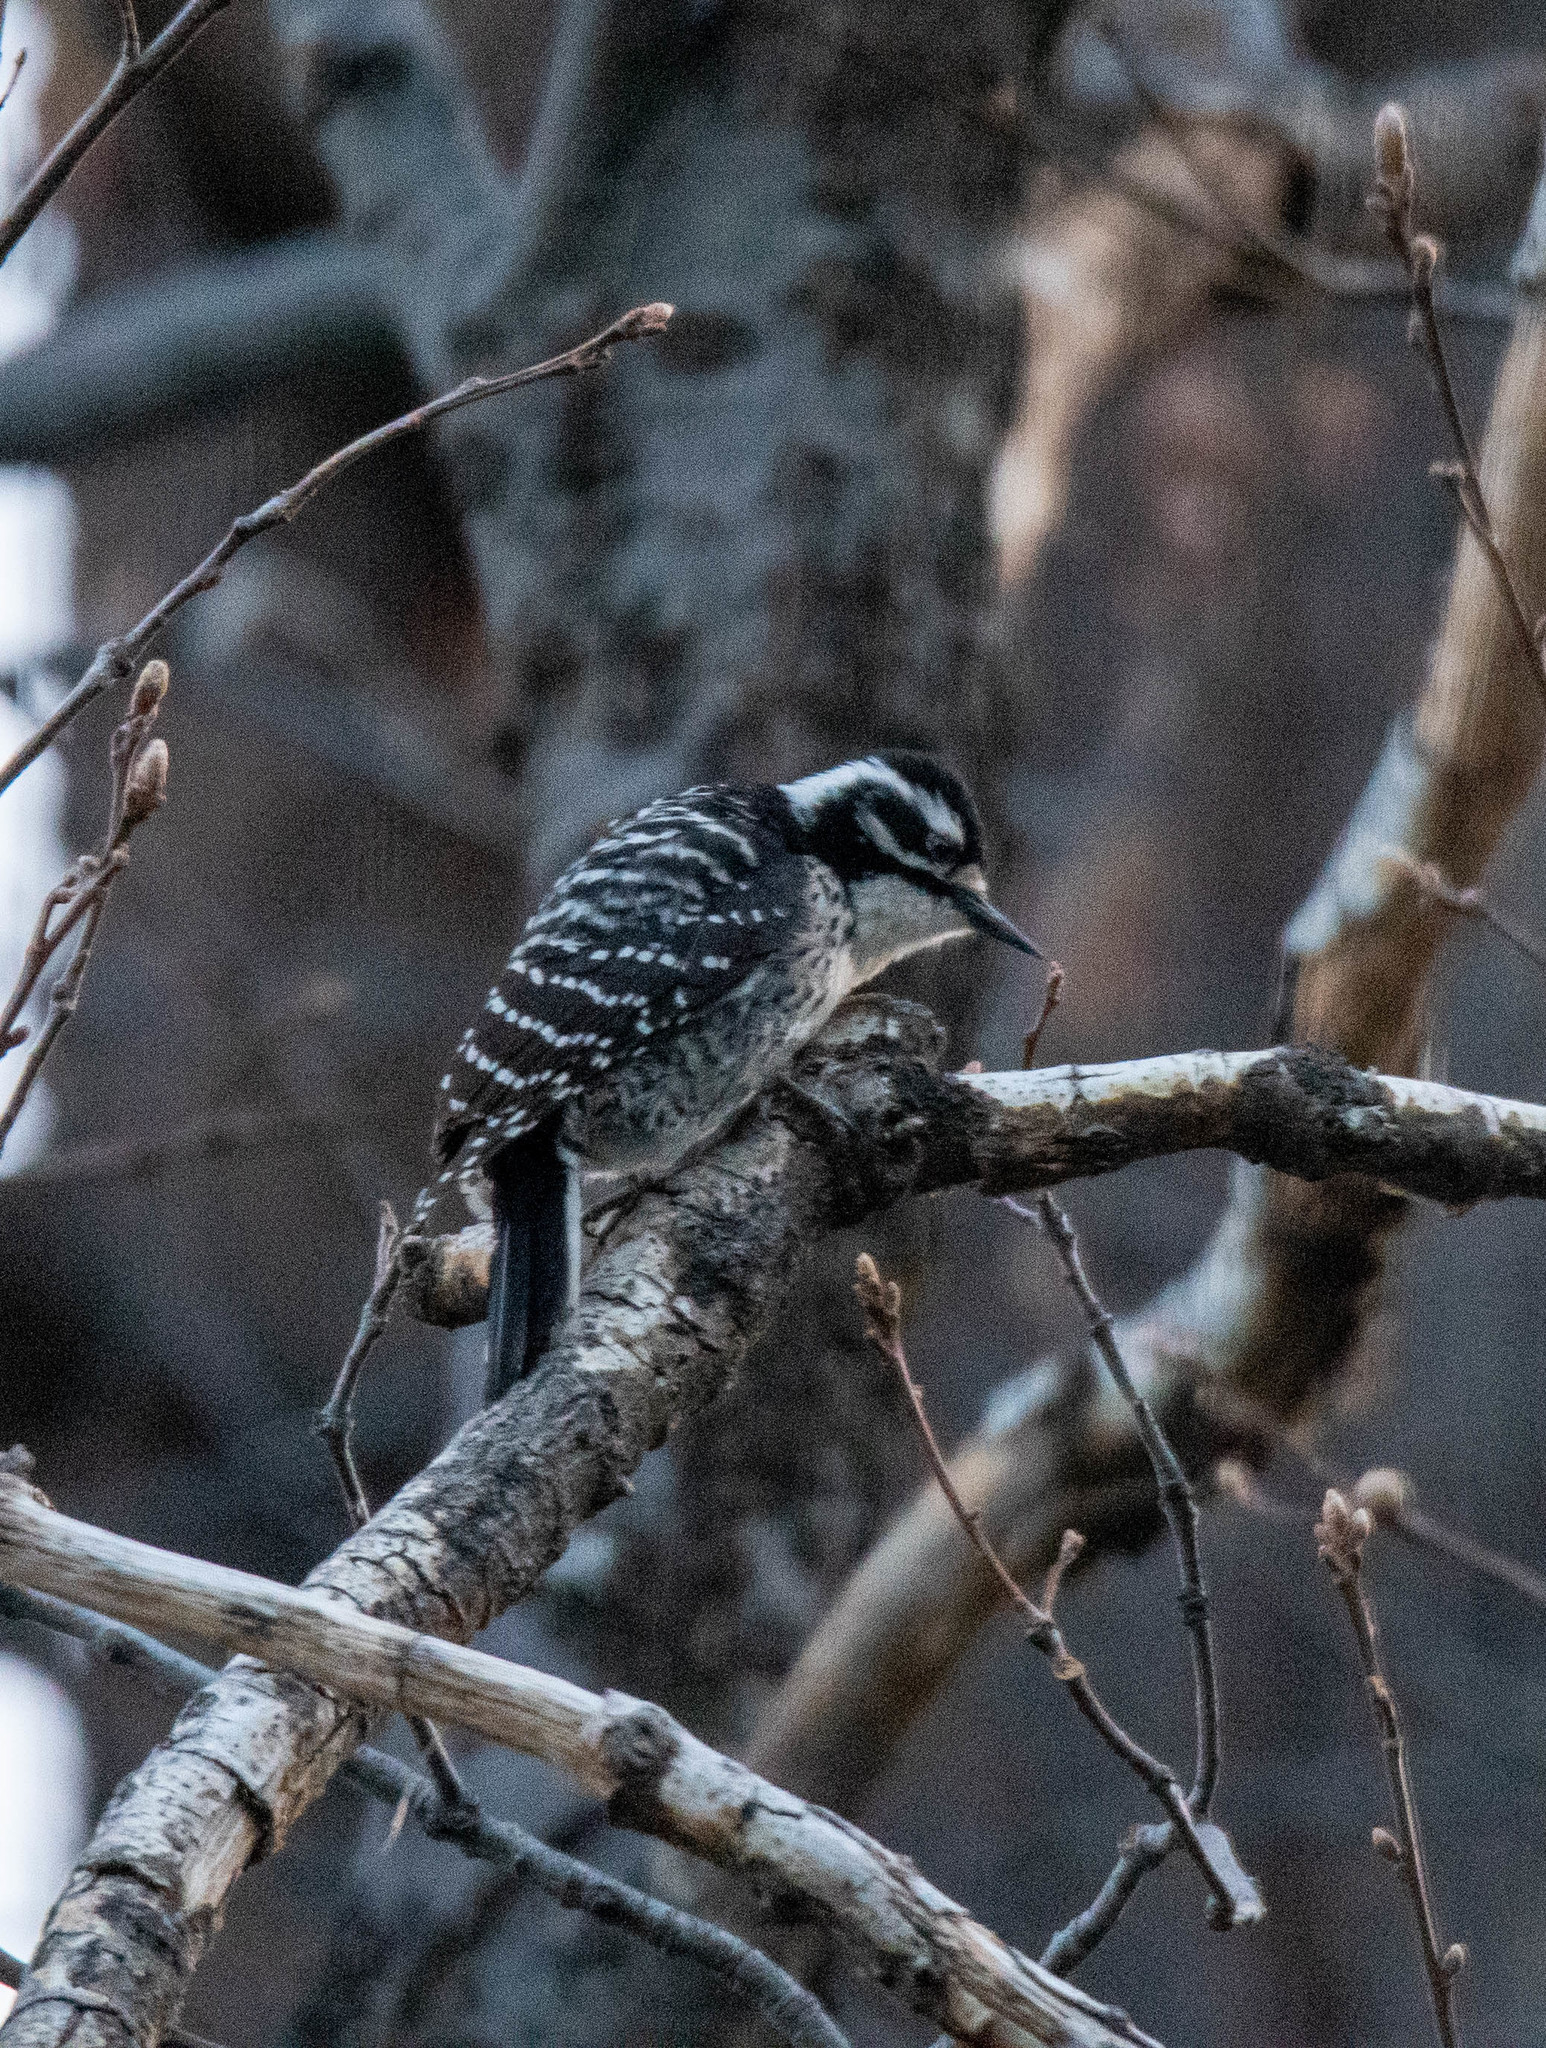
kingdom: Animalia
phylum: Chordata
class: Aves
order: Piciformes
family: Picidae
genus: Dryobates
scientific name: Dryobates nuttallii
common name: Nuttall's woodpecker
